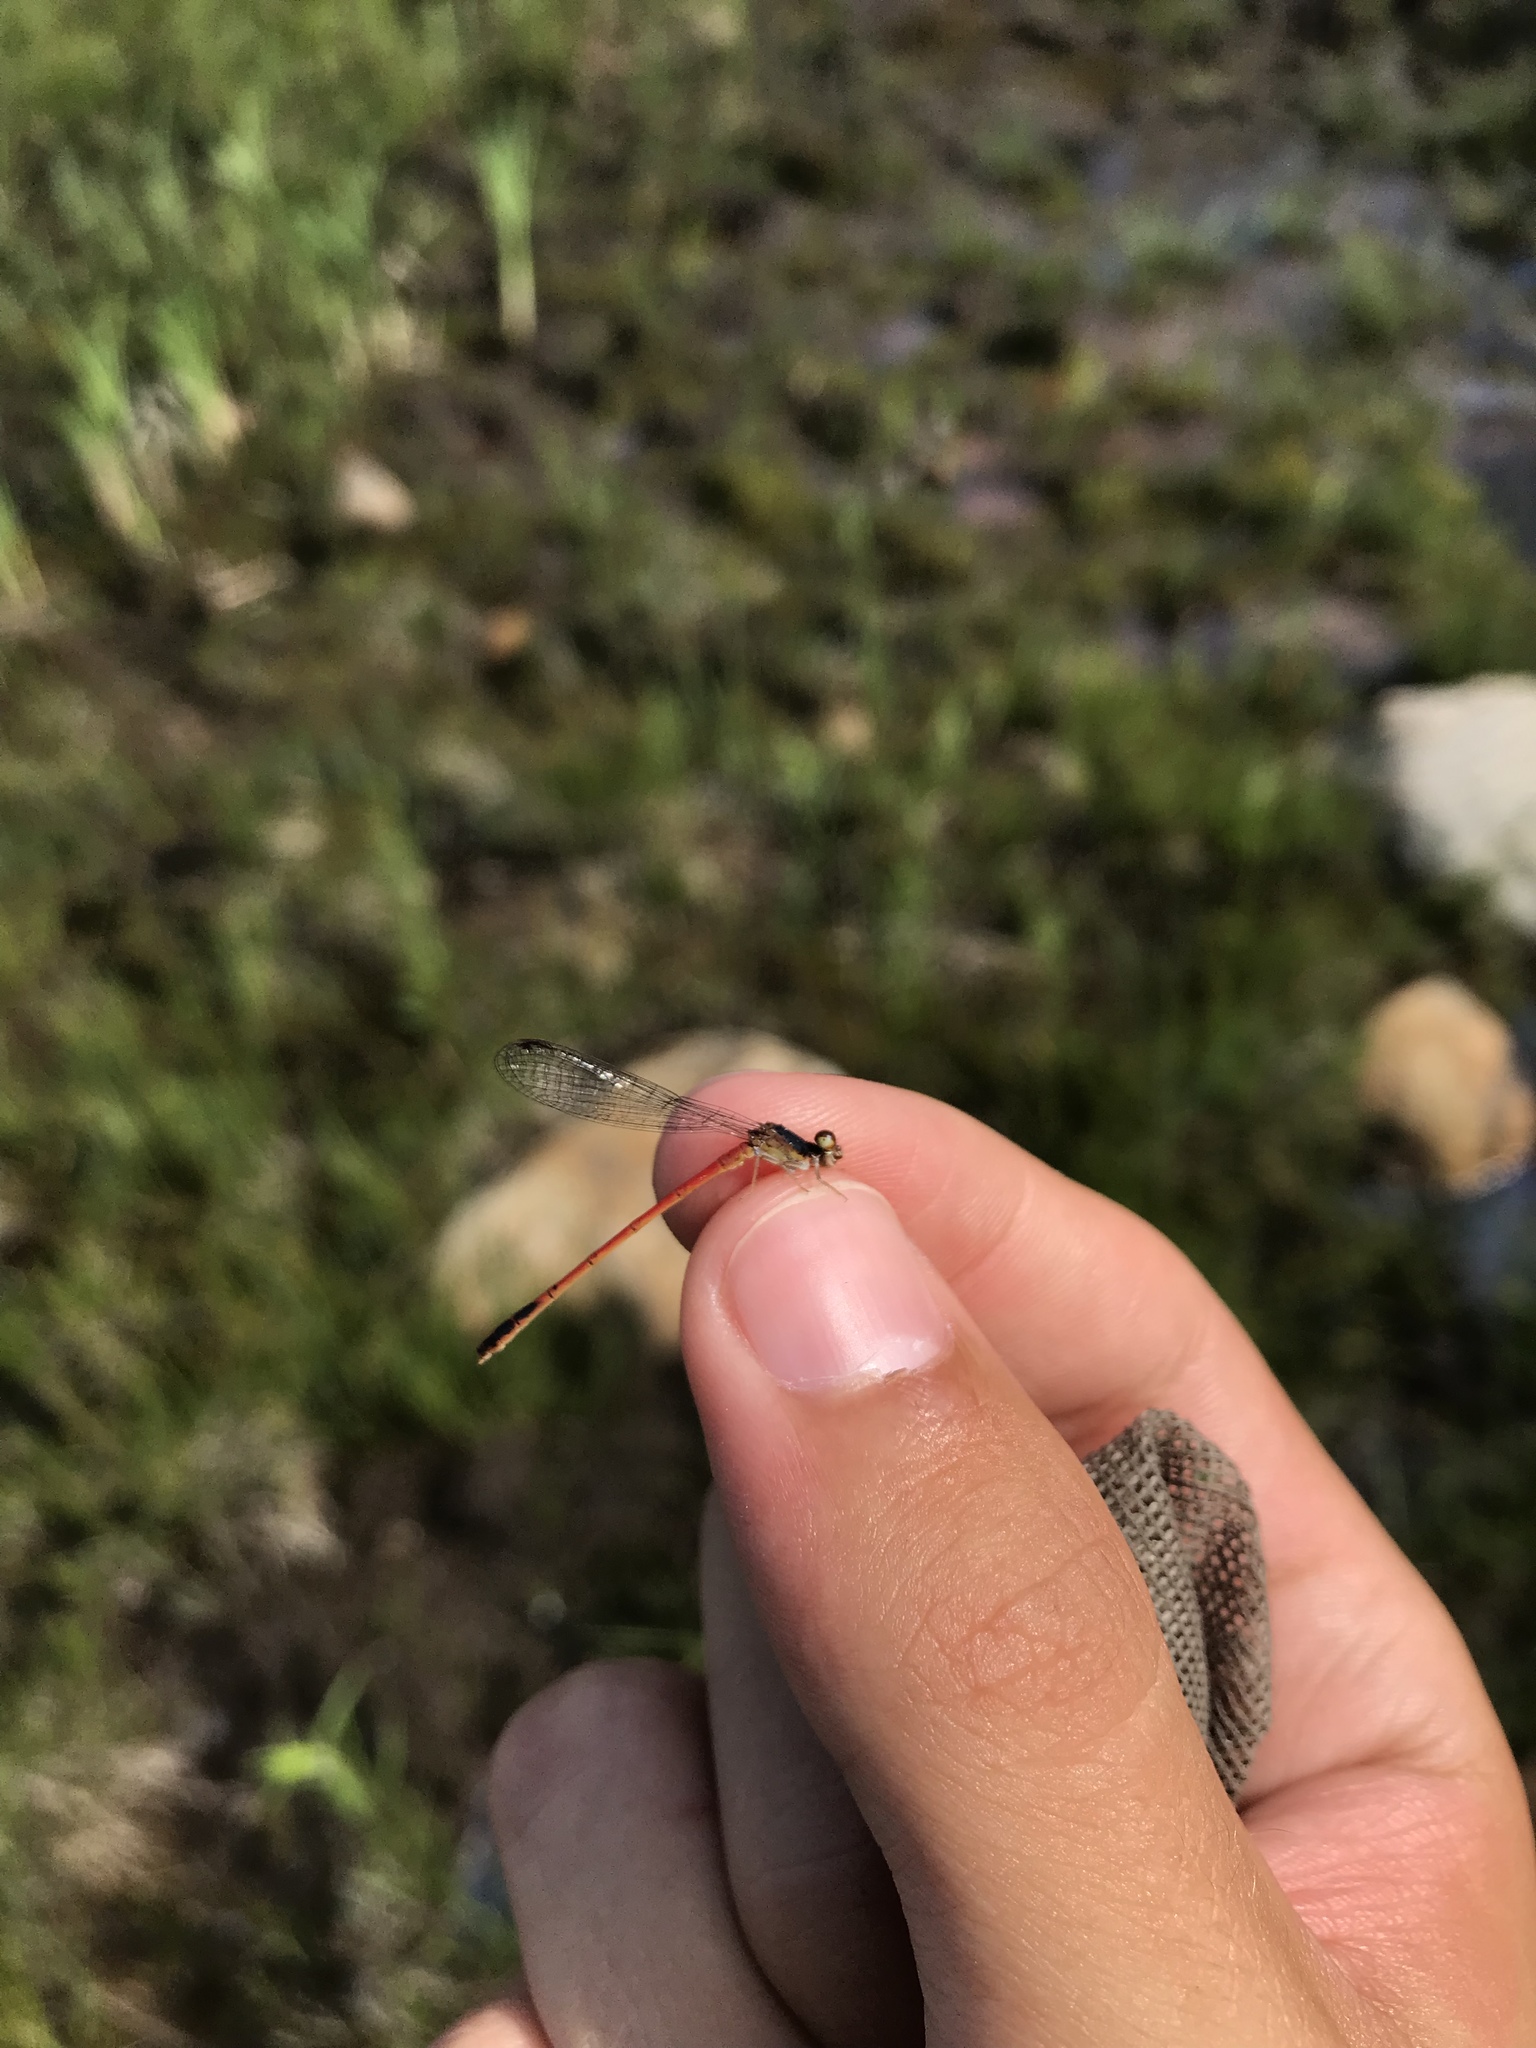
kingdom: Animalia
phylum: Arthropoda
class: Insecta
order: Odonata
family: Coenagrionidae
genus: Amphiagrion
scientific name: Amphiagrion saucium
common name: Eastern red damsel
